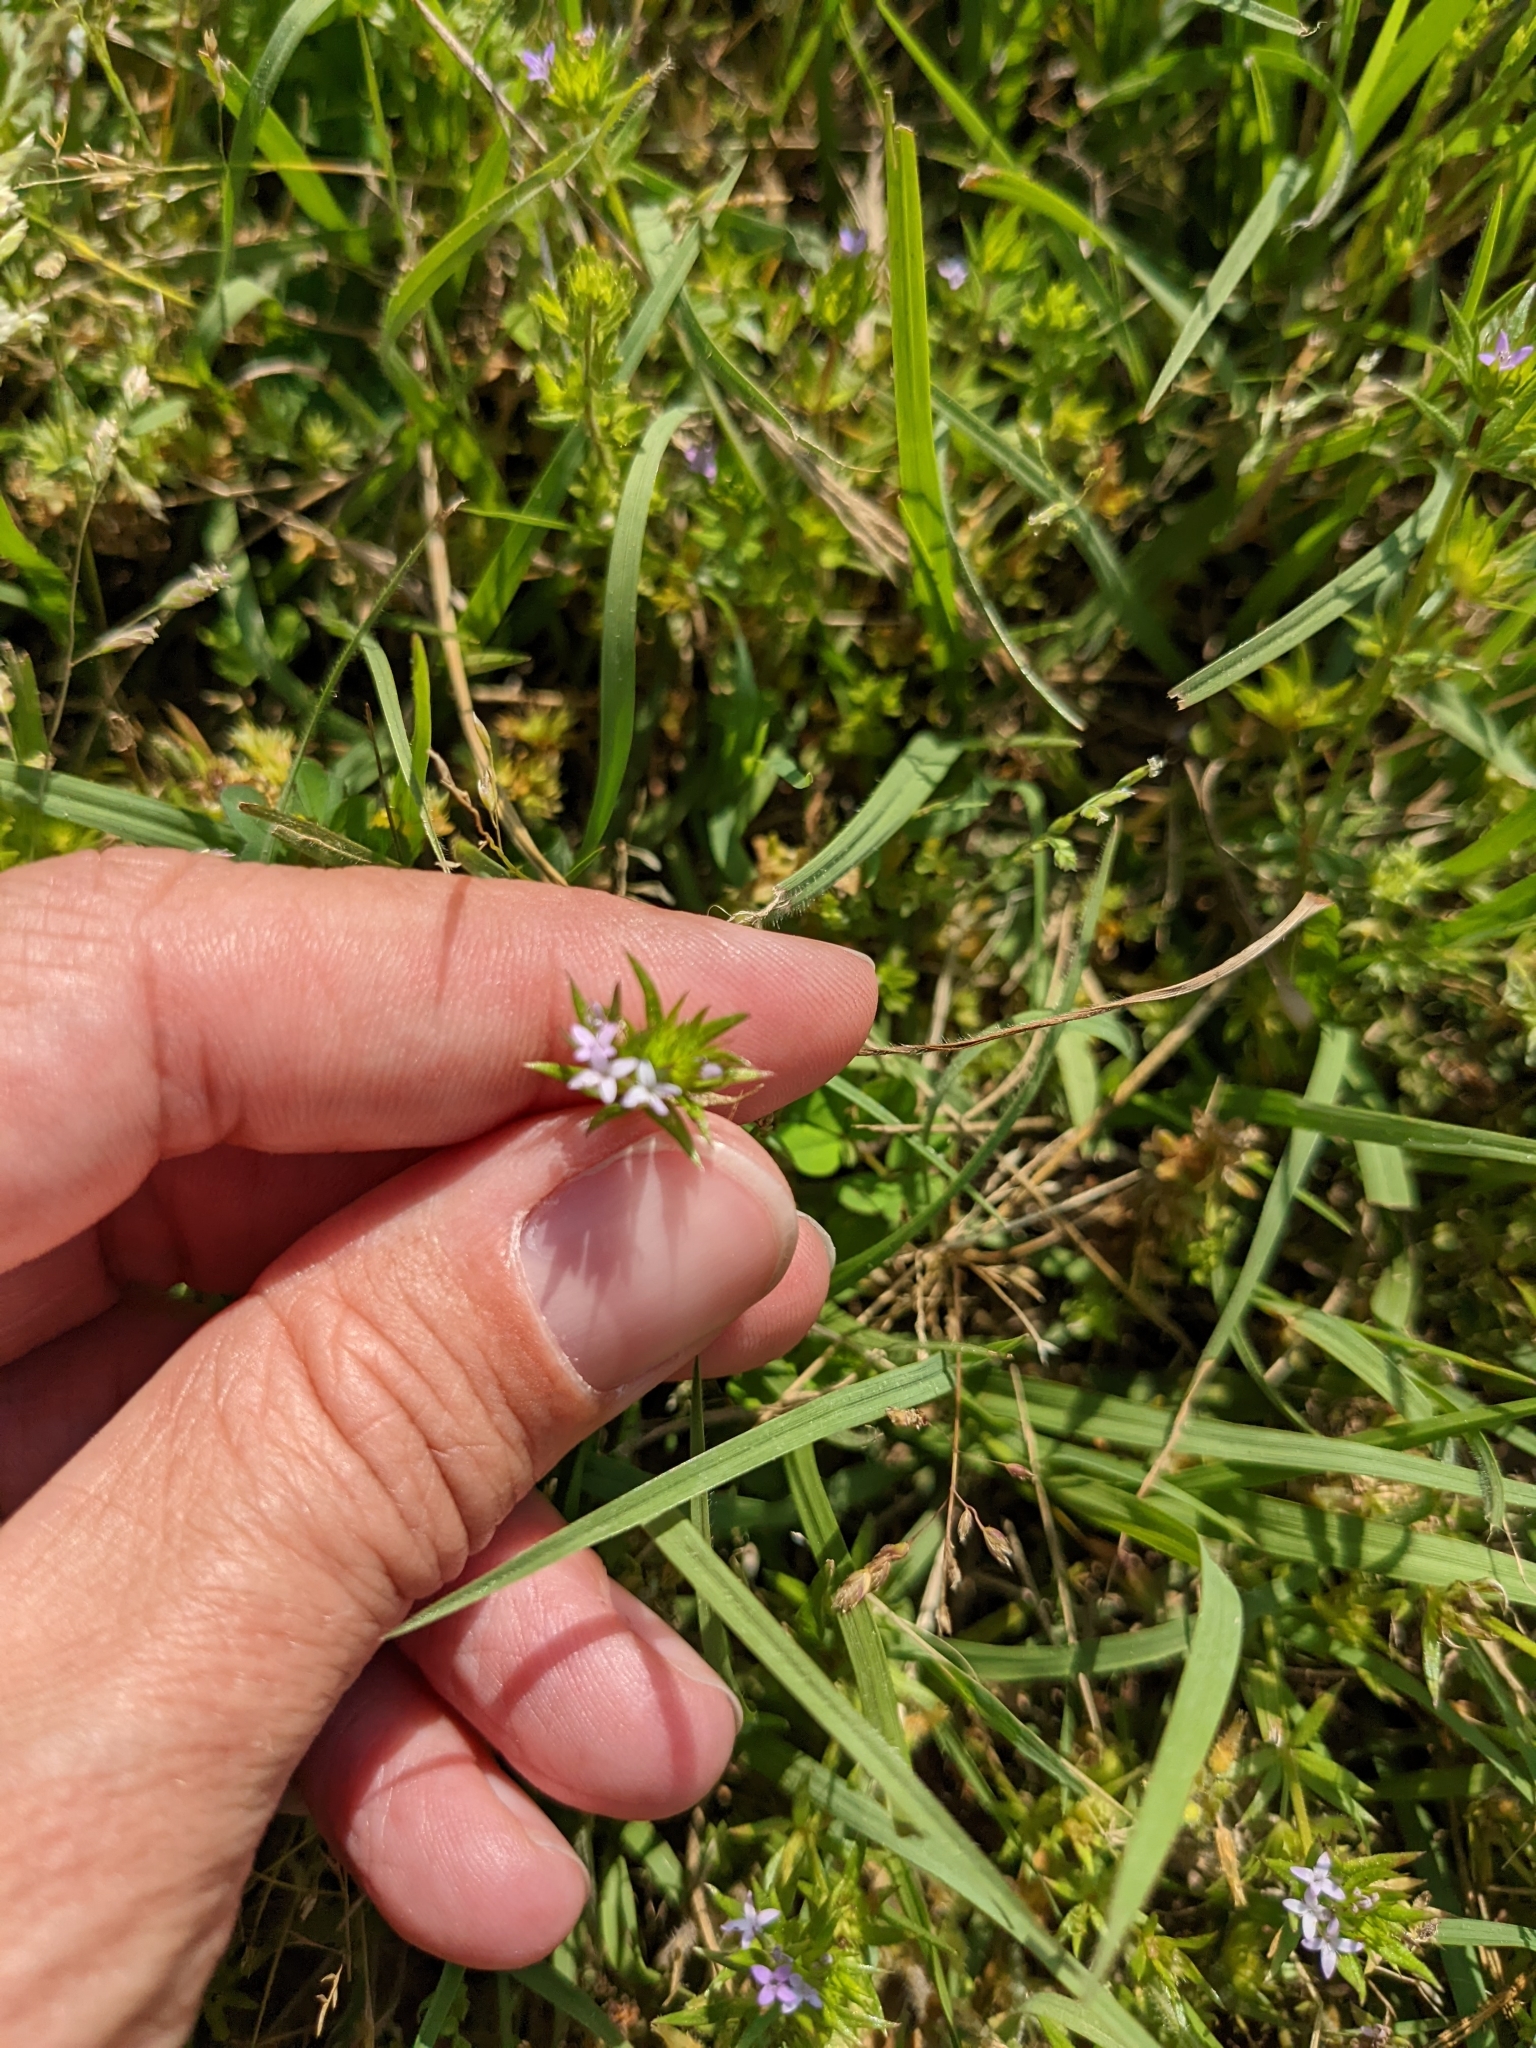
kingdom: Plantae
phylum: Tracheophyta
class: Magnoliopsida
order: Gentianales
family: Rubiaceae
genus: Sherardia
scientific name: Sherardia arvensis
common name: Field madder
